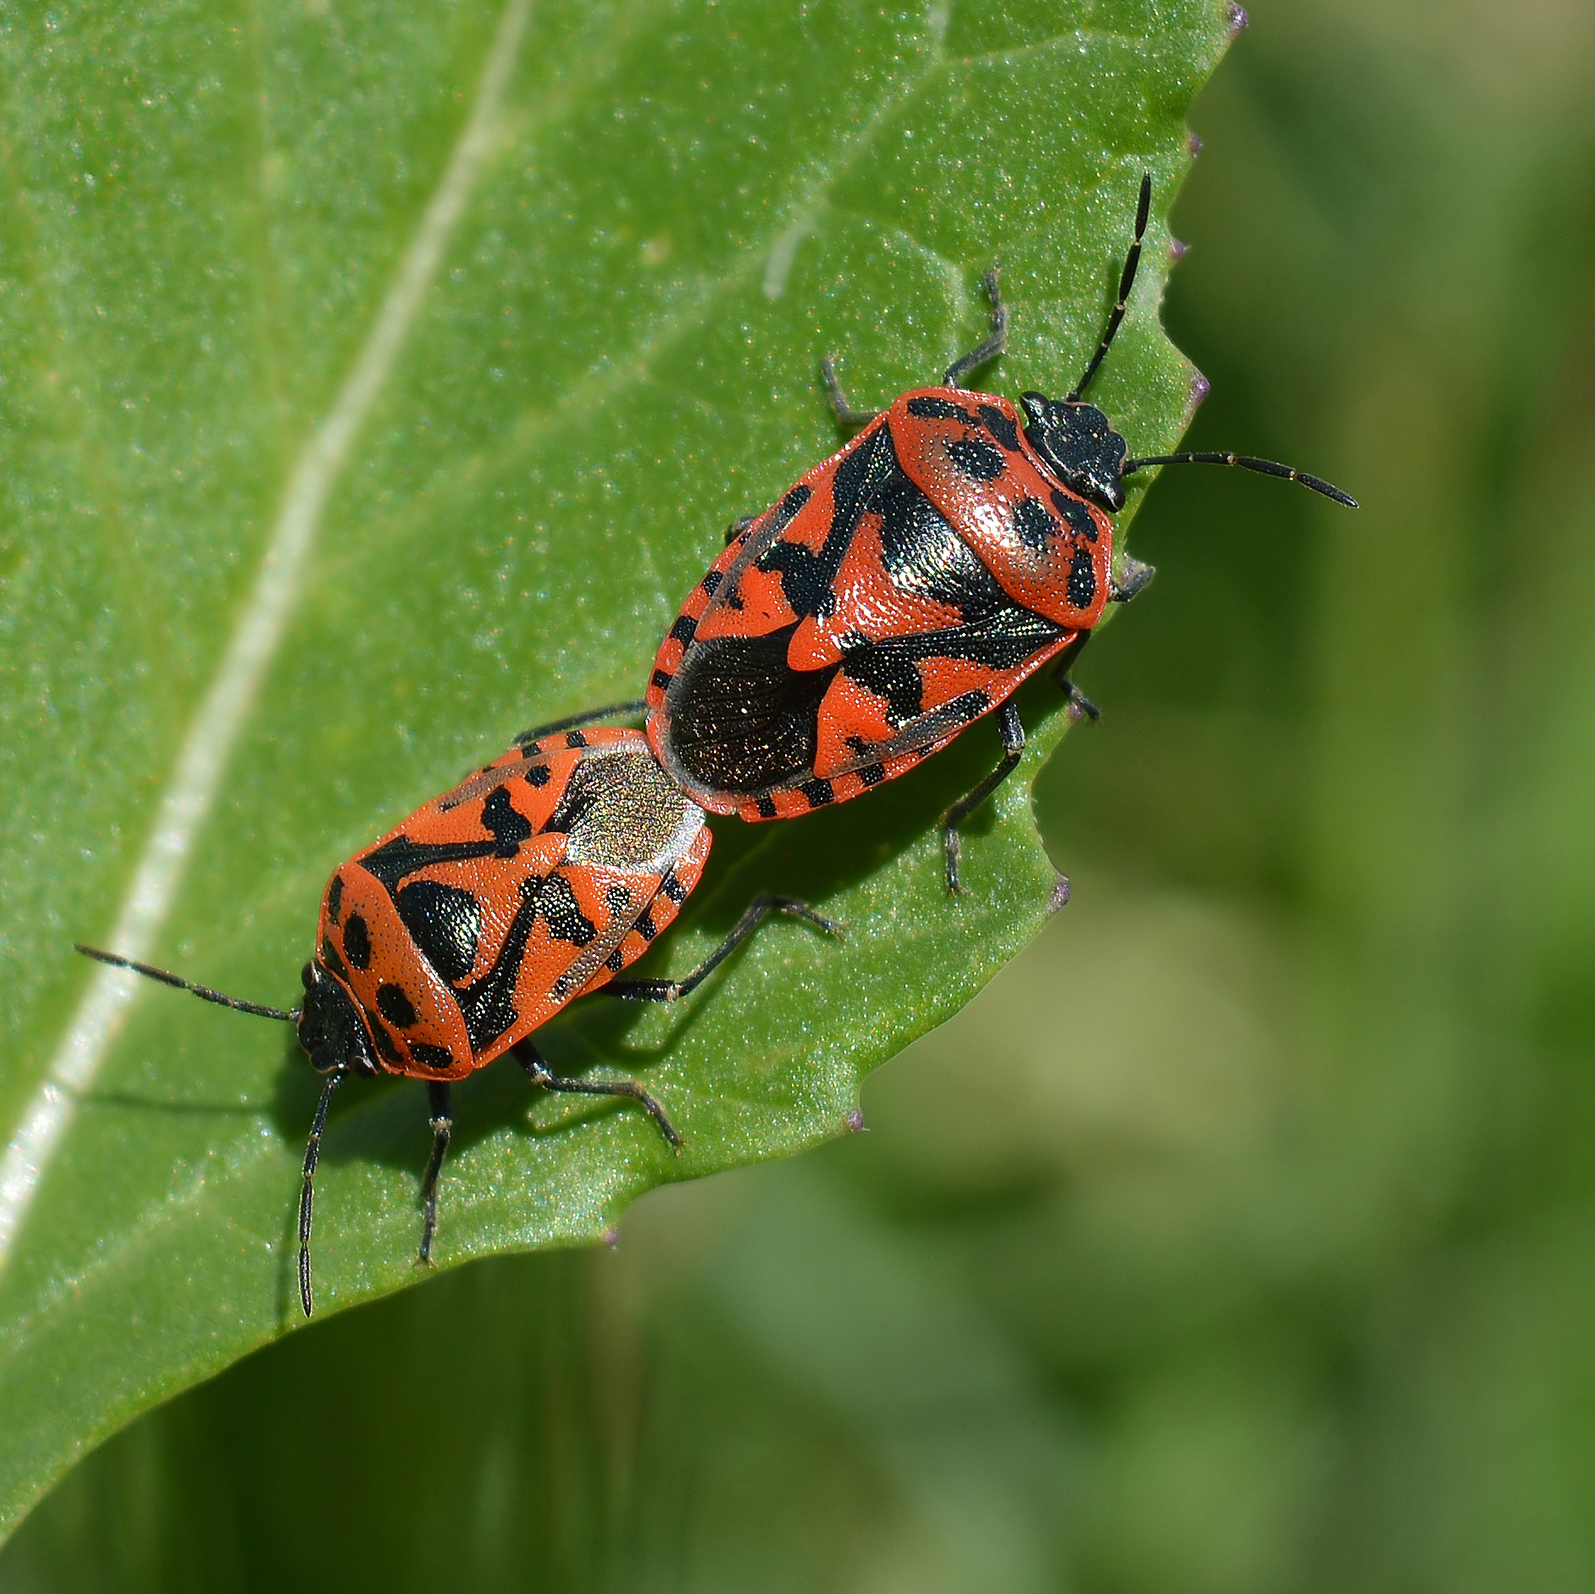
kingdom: Animalia
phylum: Arthropoda
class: Insecta
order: Hemiptera
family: Pentatomidae
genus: Eurydema
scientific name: Eurydema ornata
